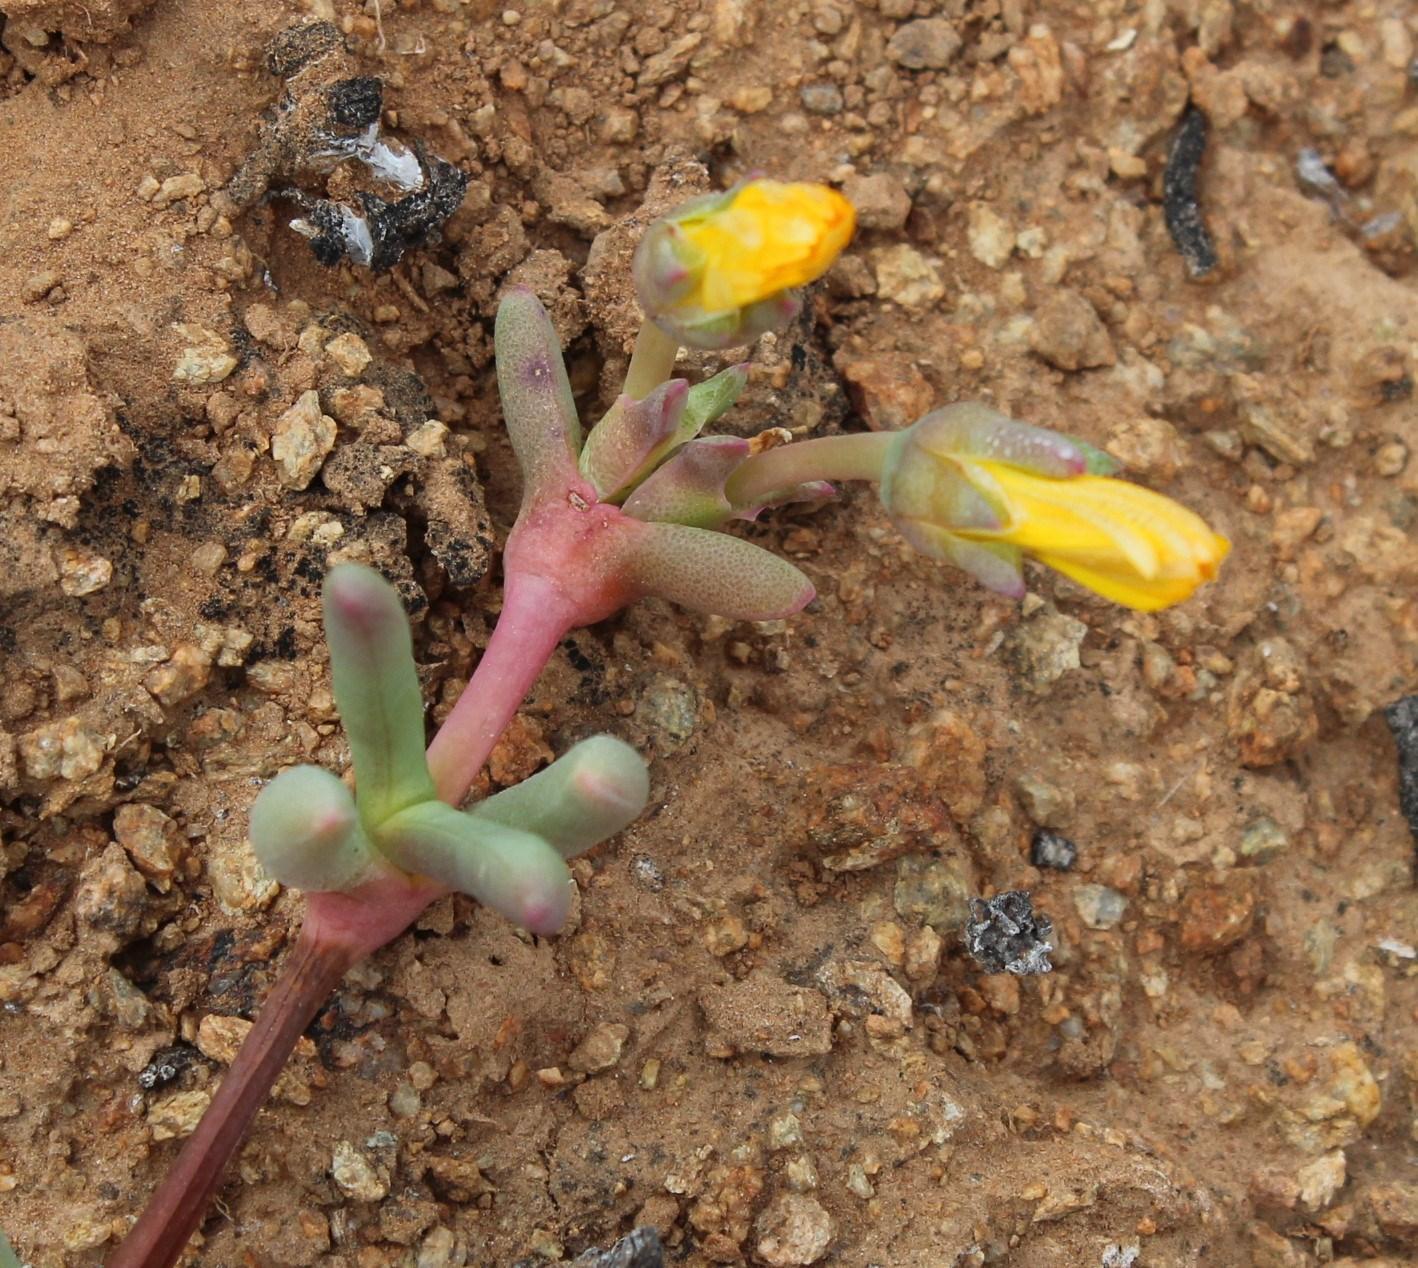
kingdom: Plantae
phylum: Tracheophyta
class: Magnoliopsida
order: Caryophyllales
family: Aizoaceae
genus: Cephalophyllum
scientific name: Cephalophyllum ebracteatum
